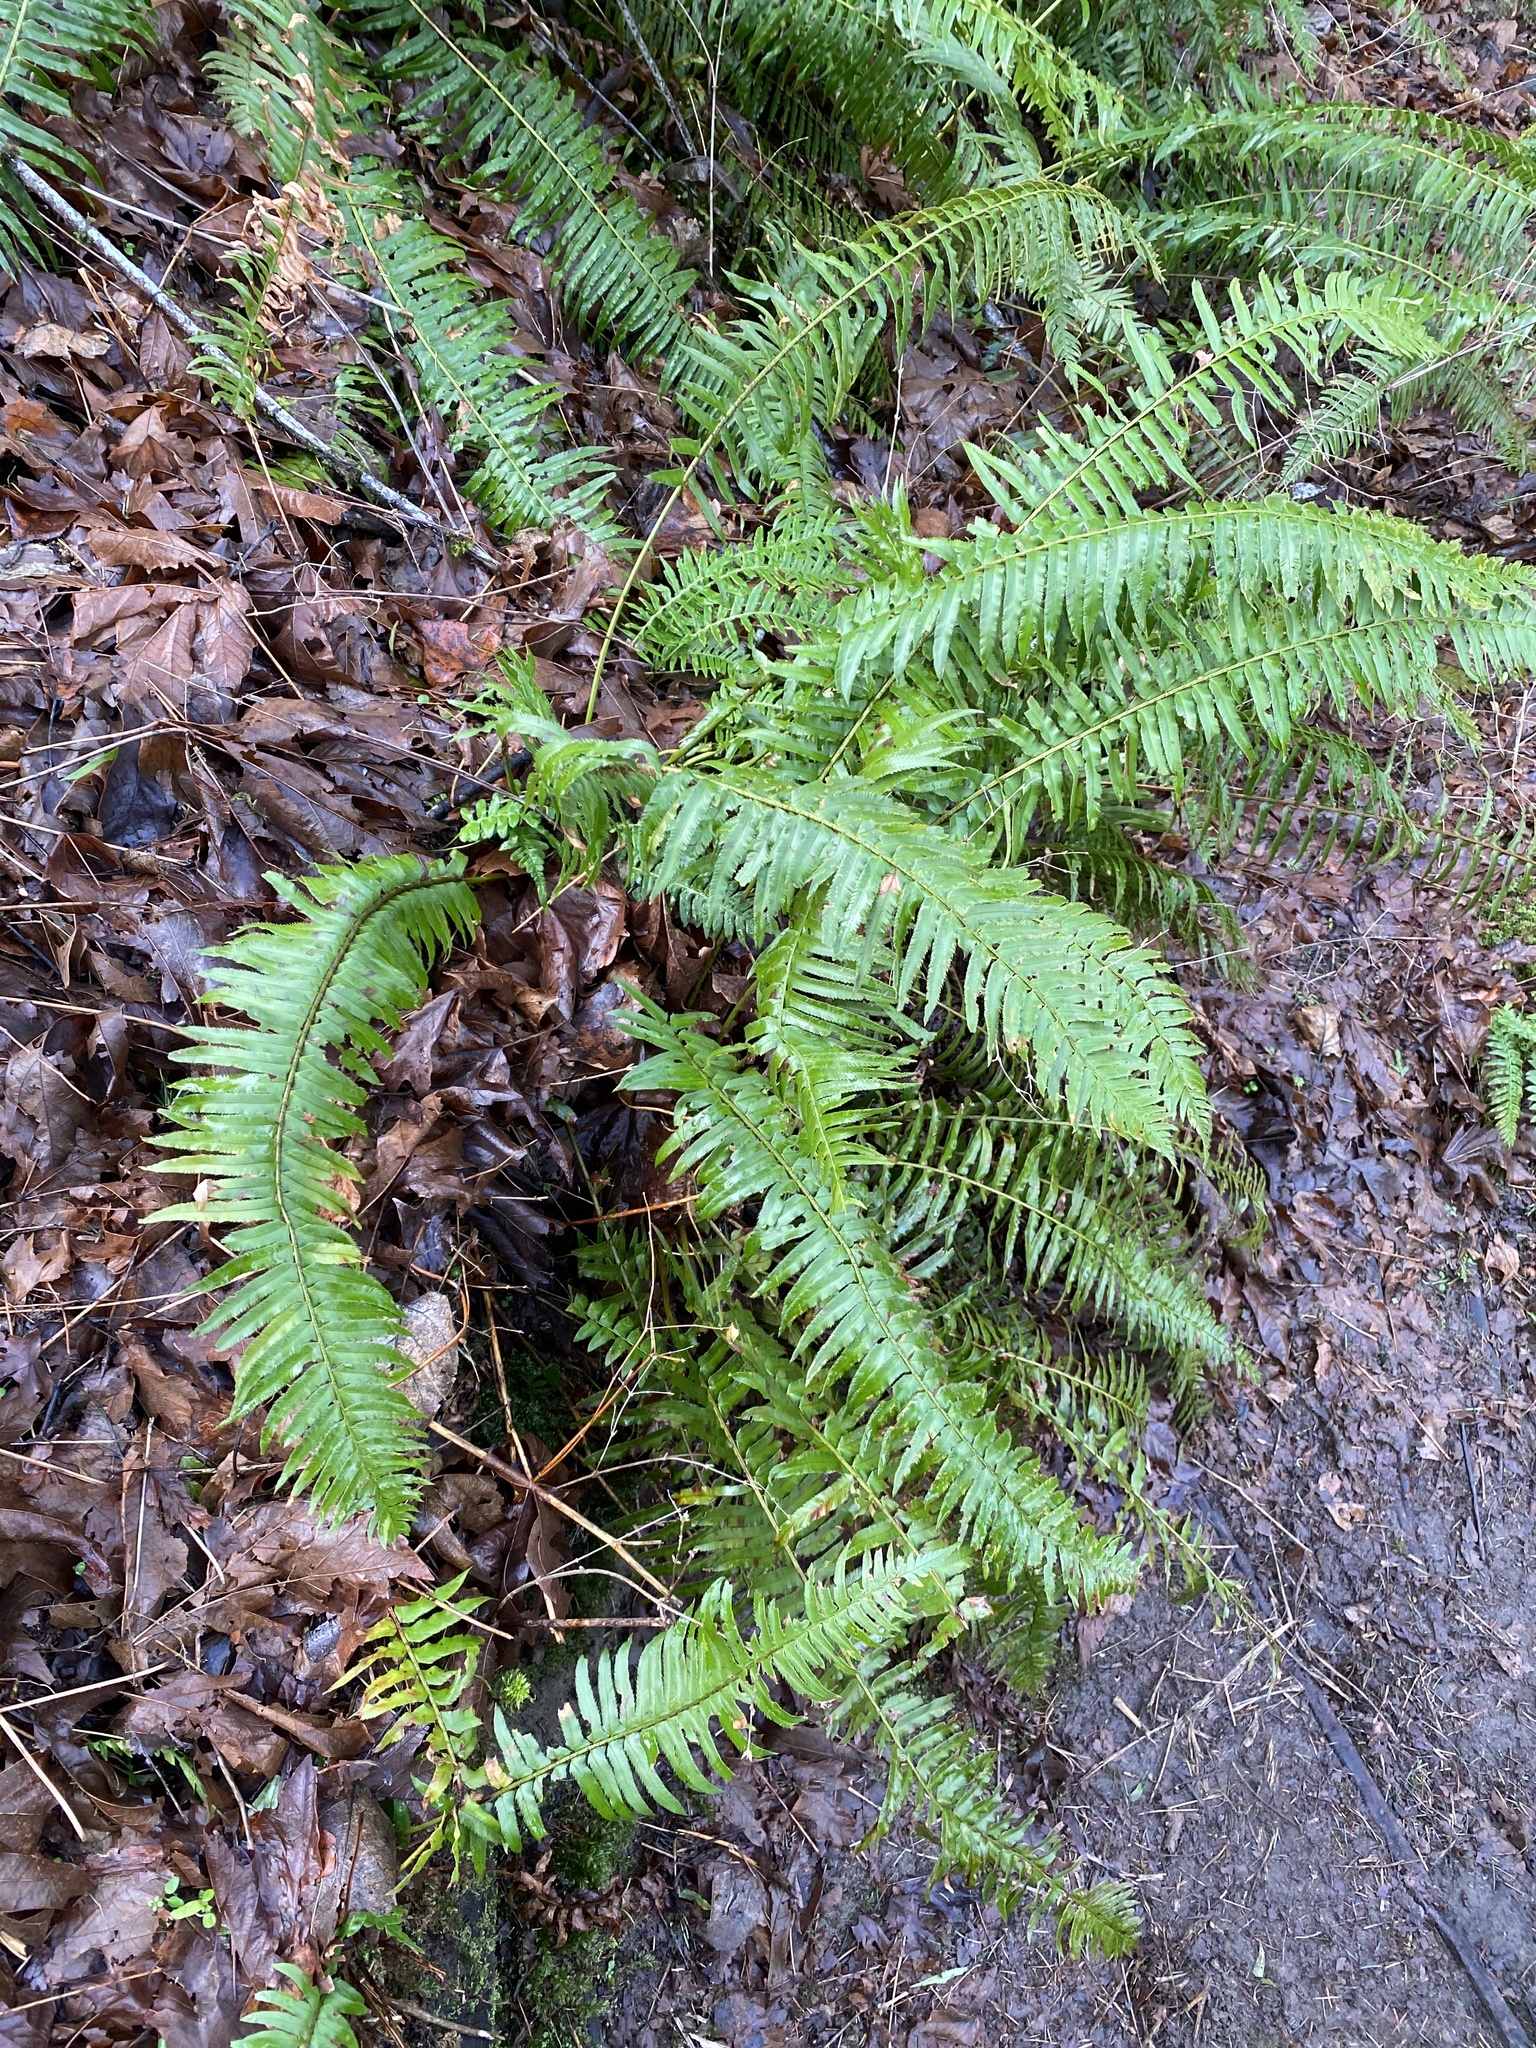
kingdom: Plantae
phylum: Tracheophyta
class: Polypodiopsida
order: Polypodiales
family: Dryopteridaceae
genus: Polystichum
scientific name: Polystichum munitum
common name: Western sword-fern
